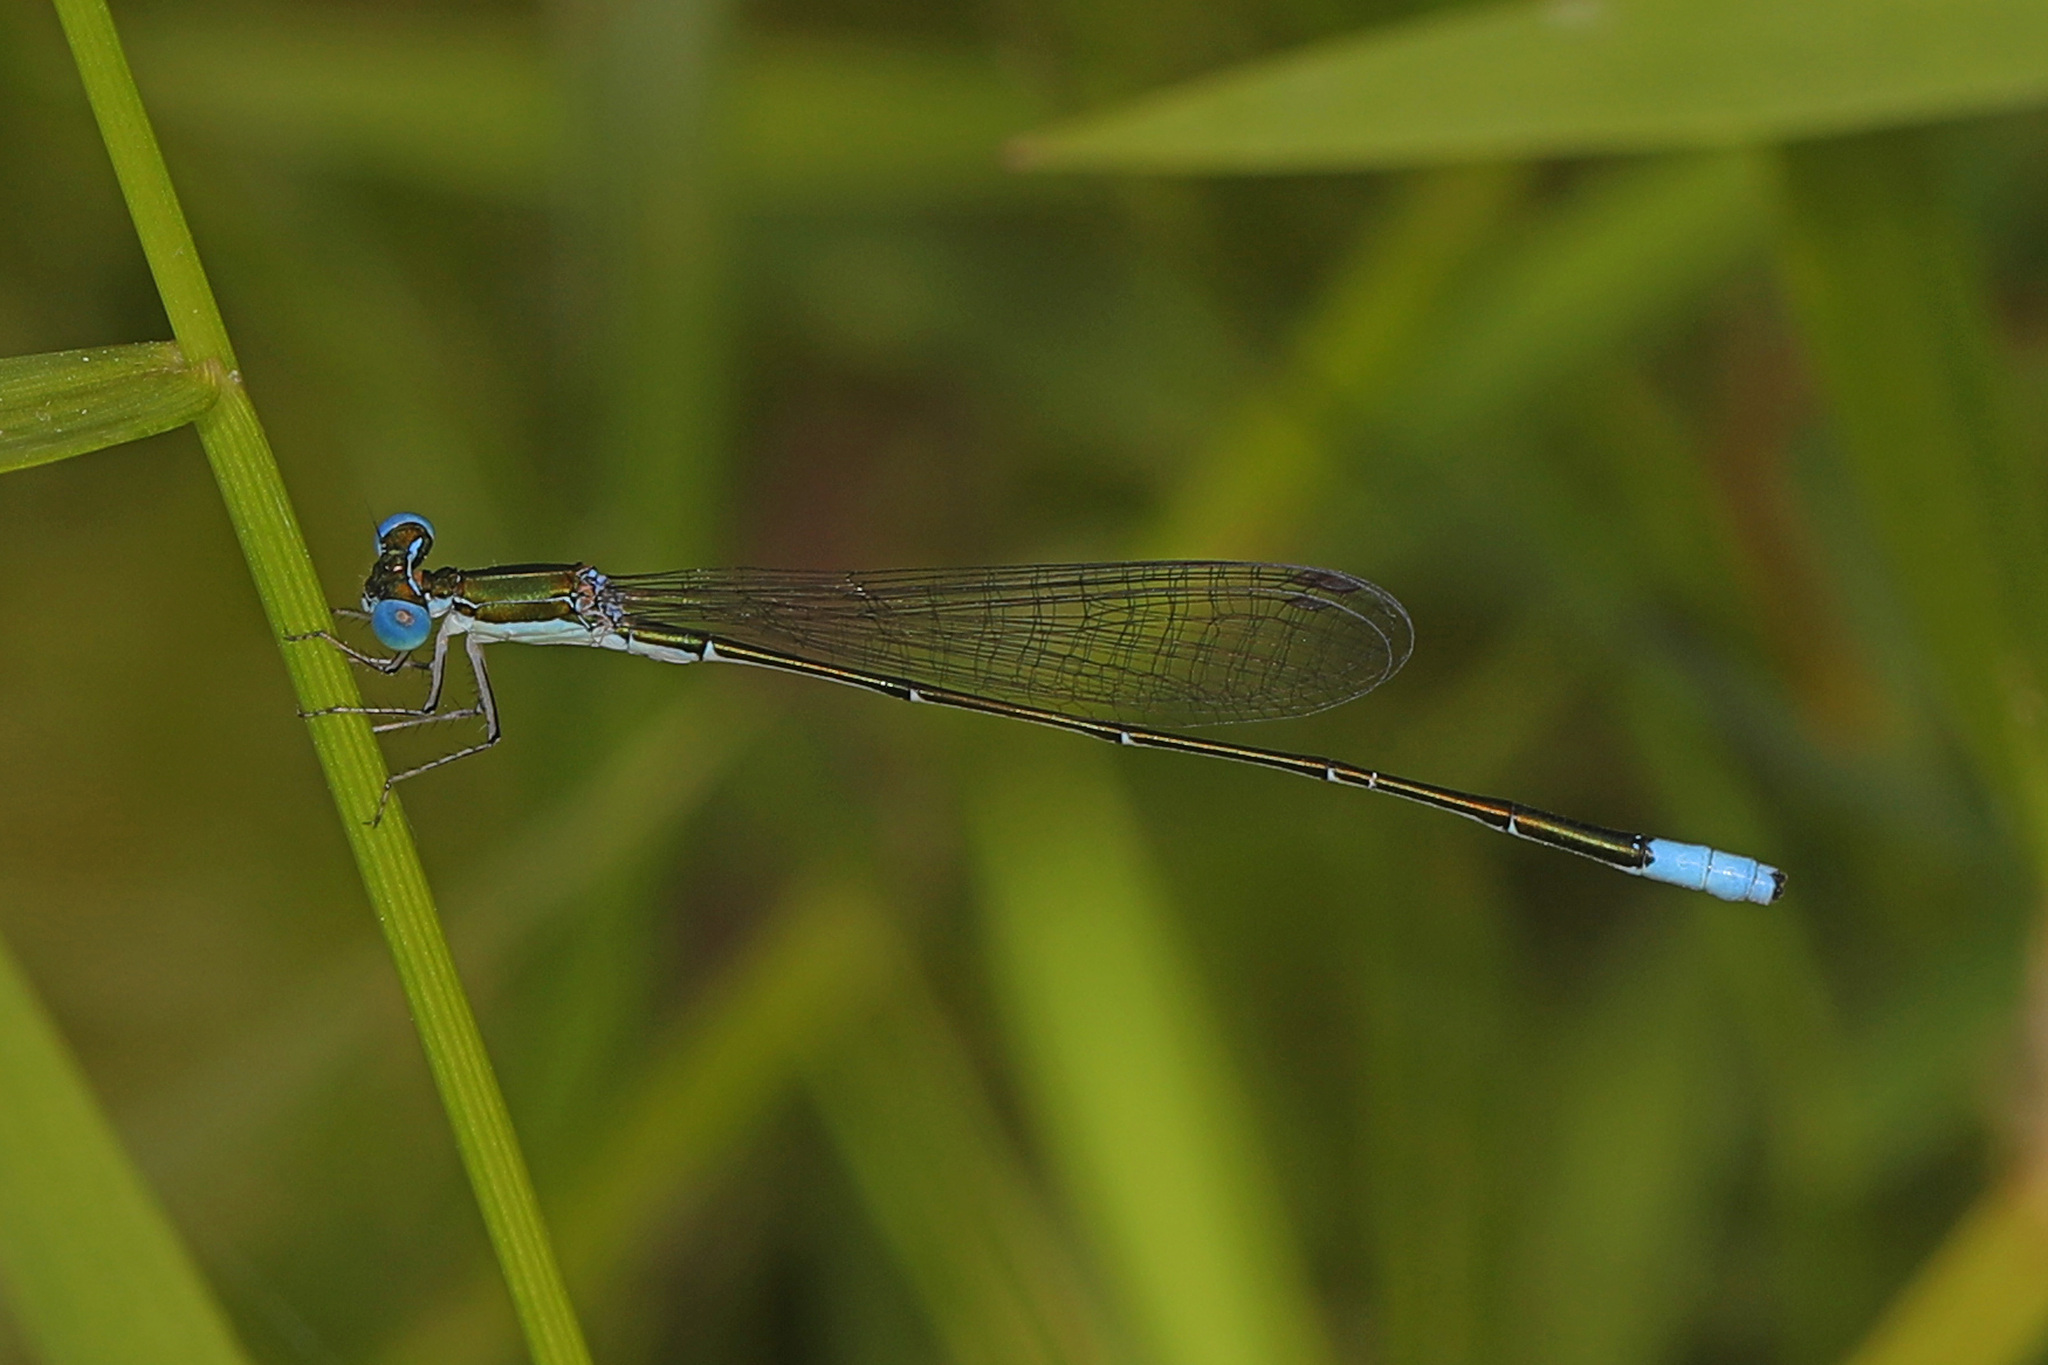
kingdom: Animalia
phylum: Arthropoda
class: Insecta
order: Odonata
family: Coenagrionidae
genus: Nehalennia
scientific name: Nehalennia gracilis
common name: Sphagnum sprite
